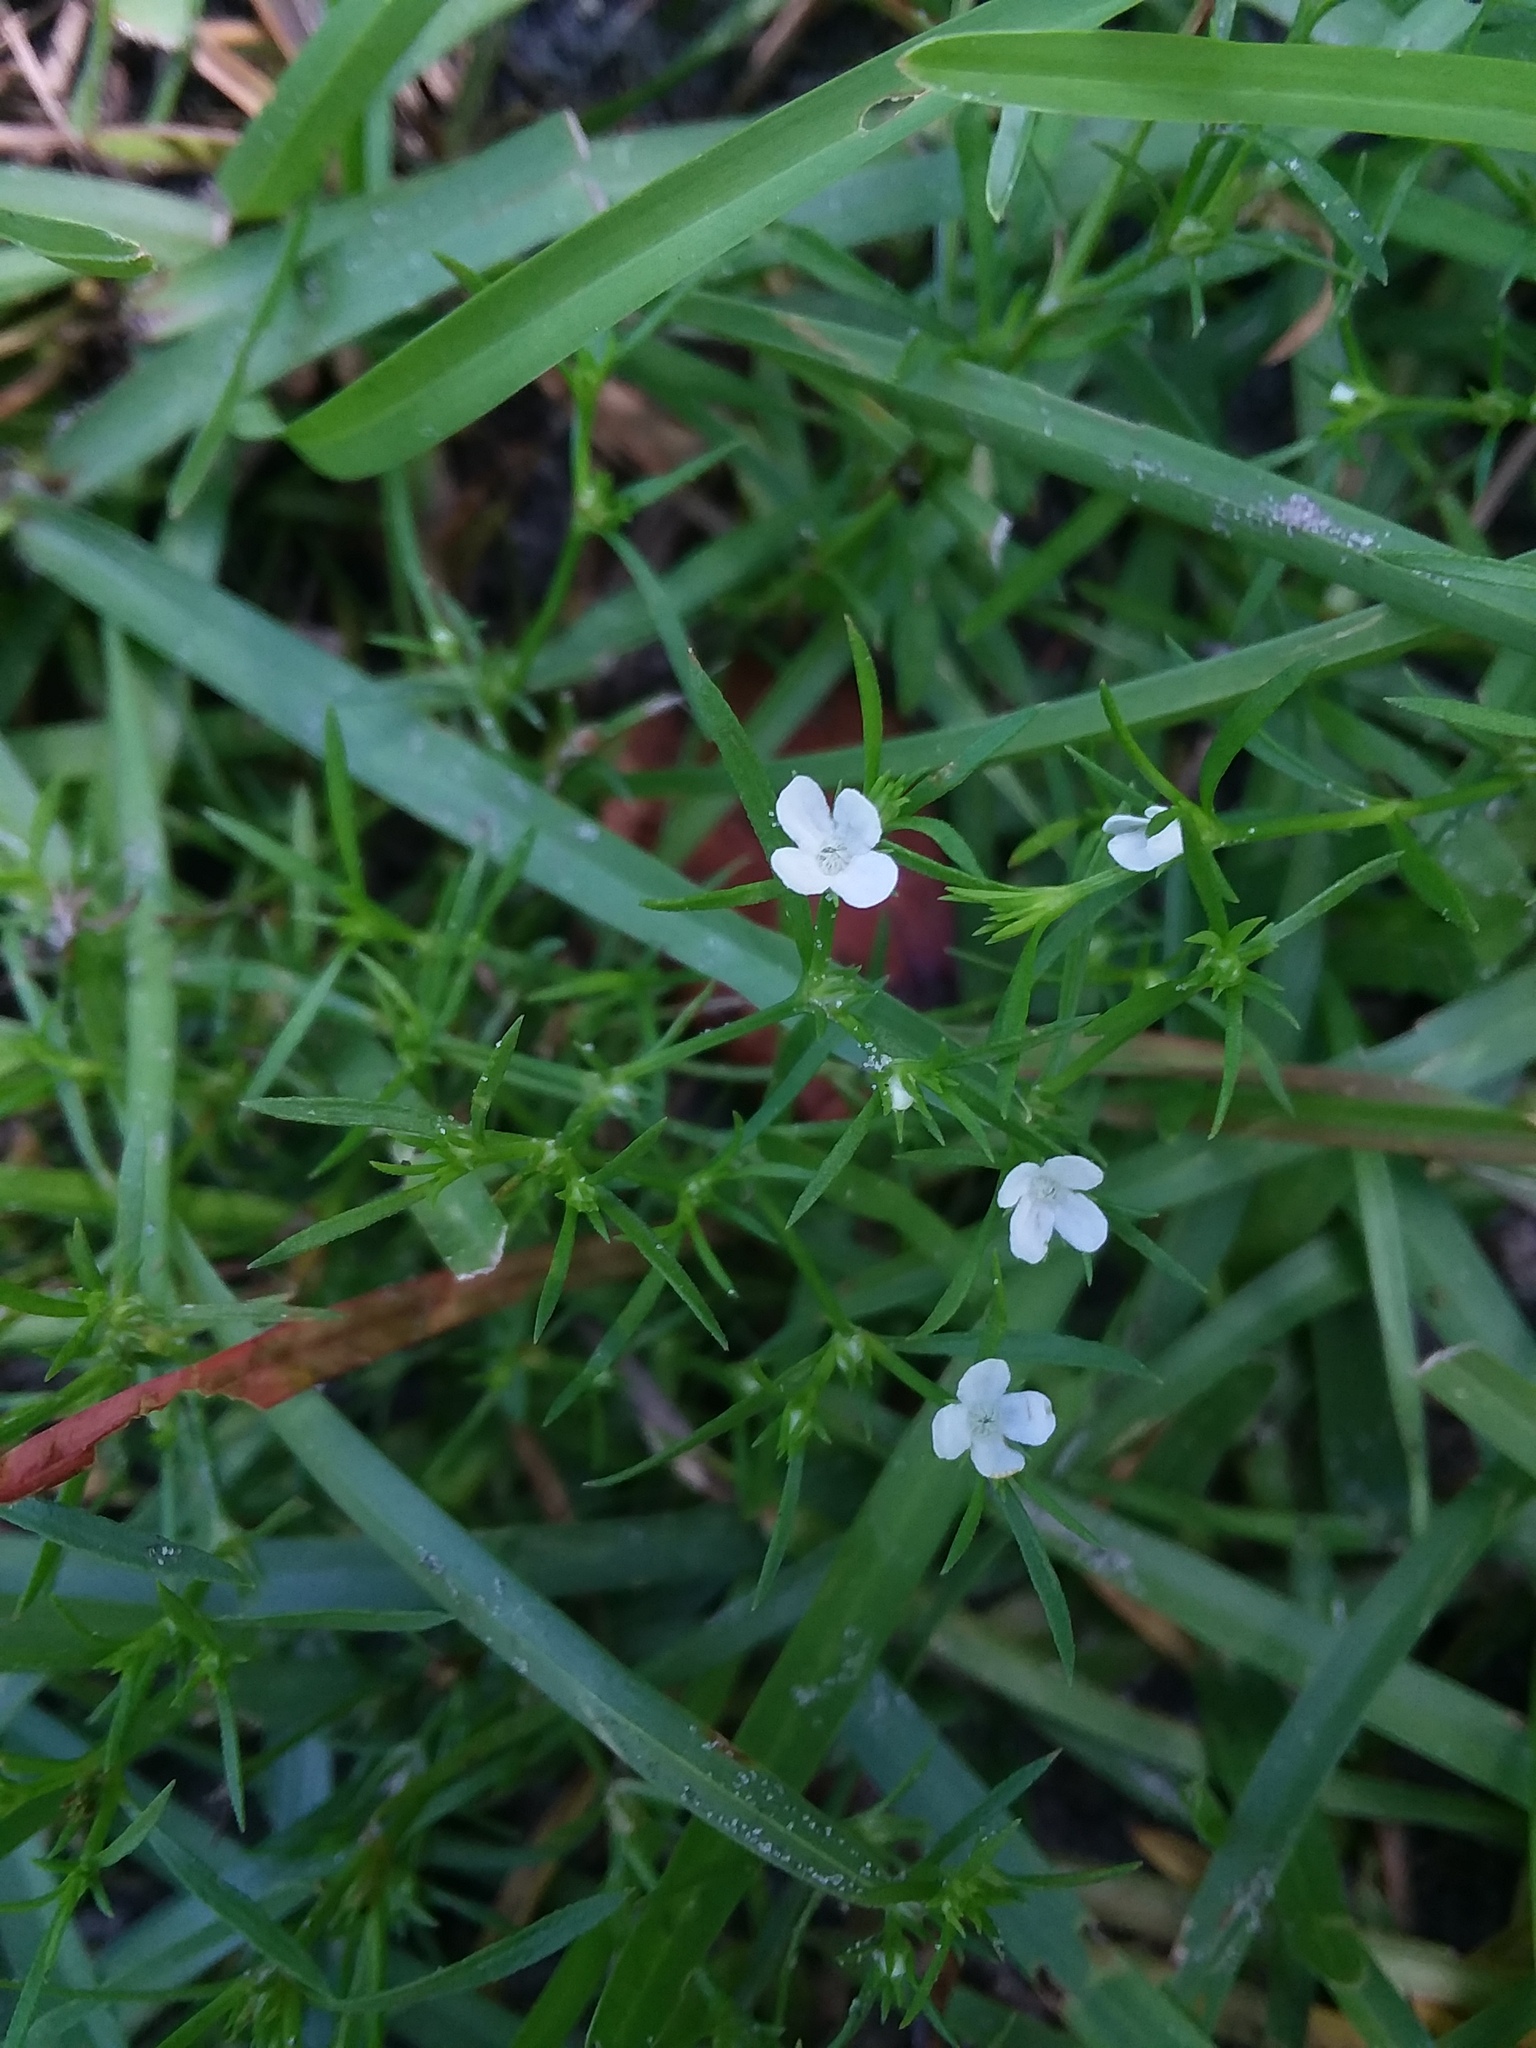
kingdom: Plantae
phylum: Tracheophyta
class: Magnoliopsida
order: Lamiales
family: Tetrachondraceae
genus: Polypremum
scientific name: Polypremum procumbens
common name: Juniper-leaf
